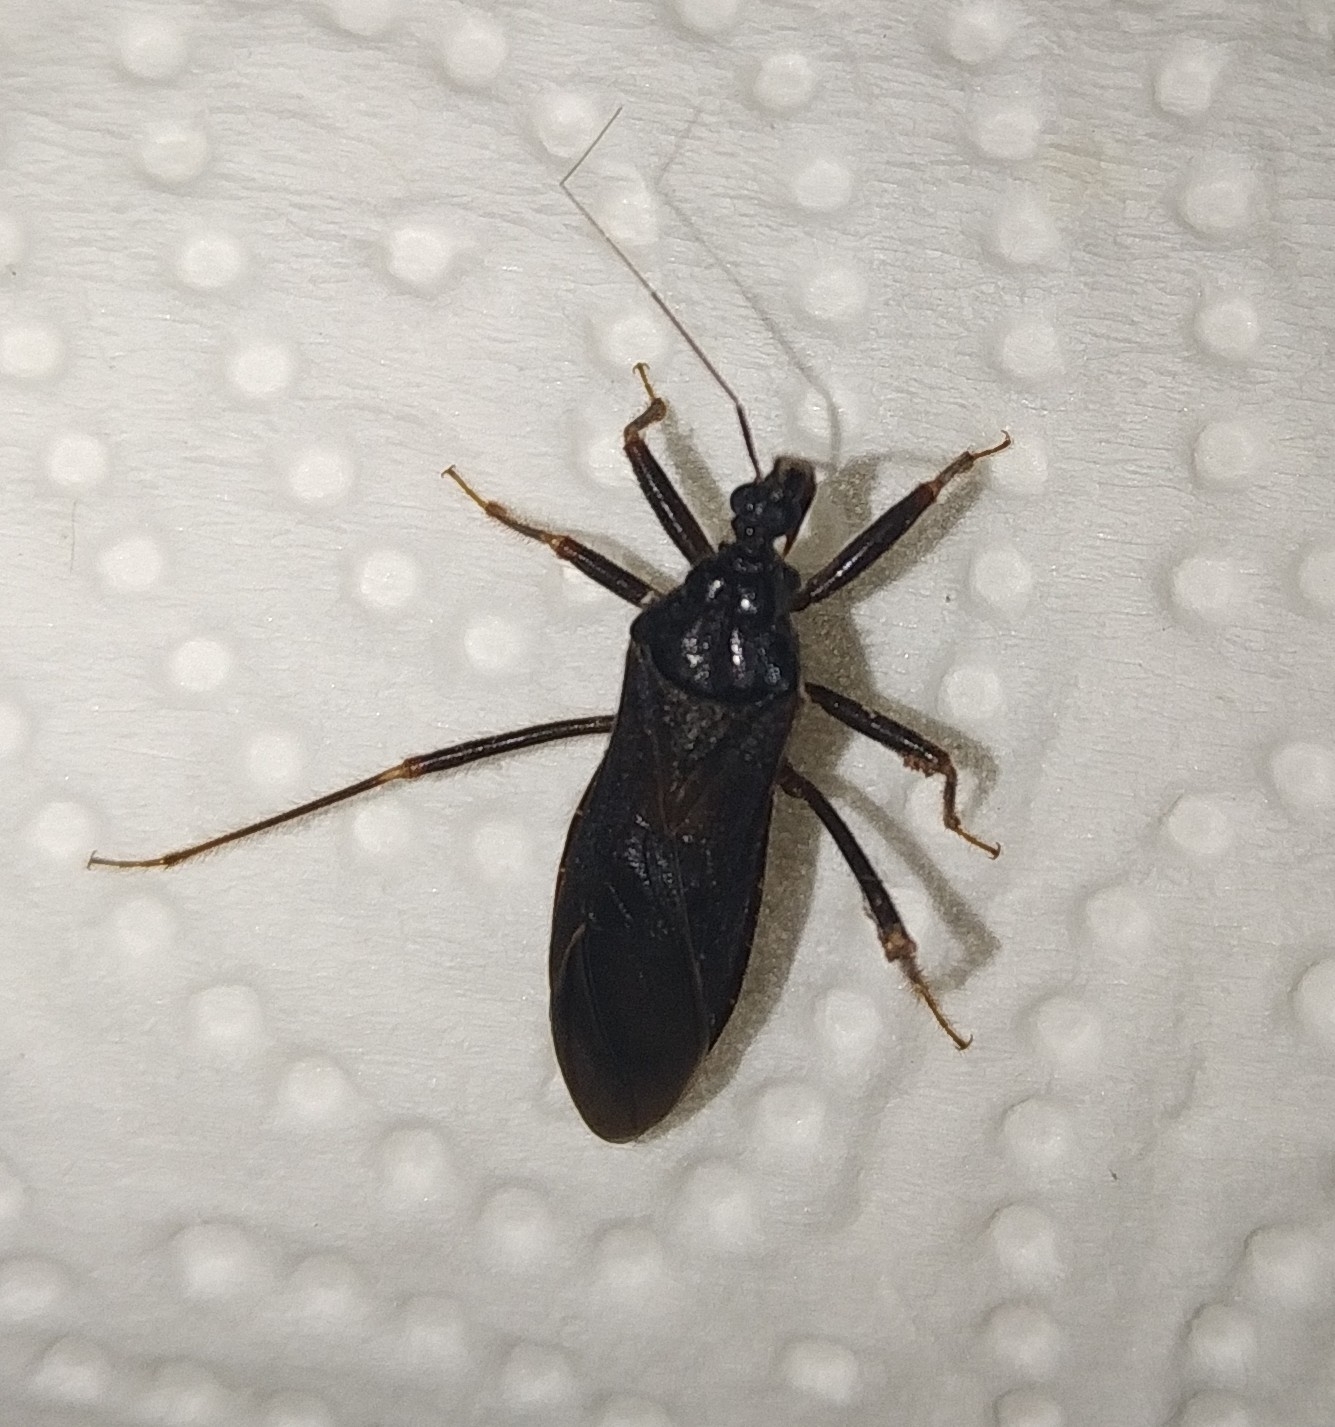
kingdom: Animalia
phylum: Arthropoda
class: Insecta
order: Hemiptera
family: Reduviidae
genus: Reduvius
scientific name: Reduvius personatus
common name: Masked hunter
